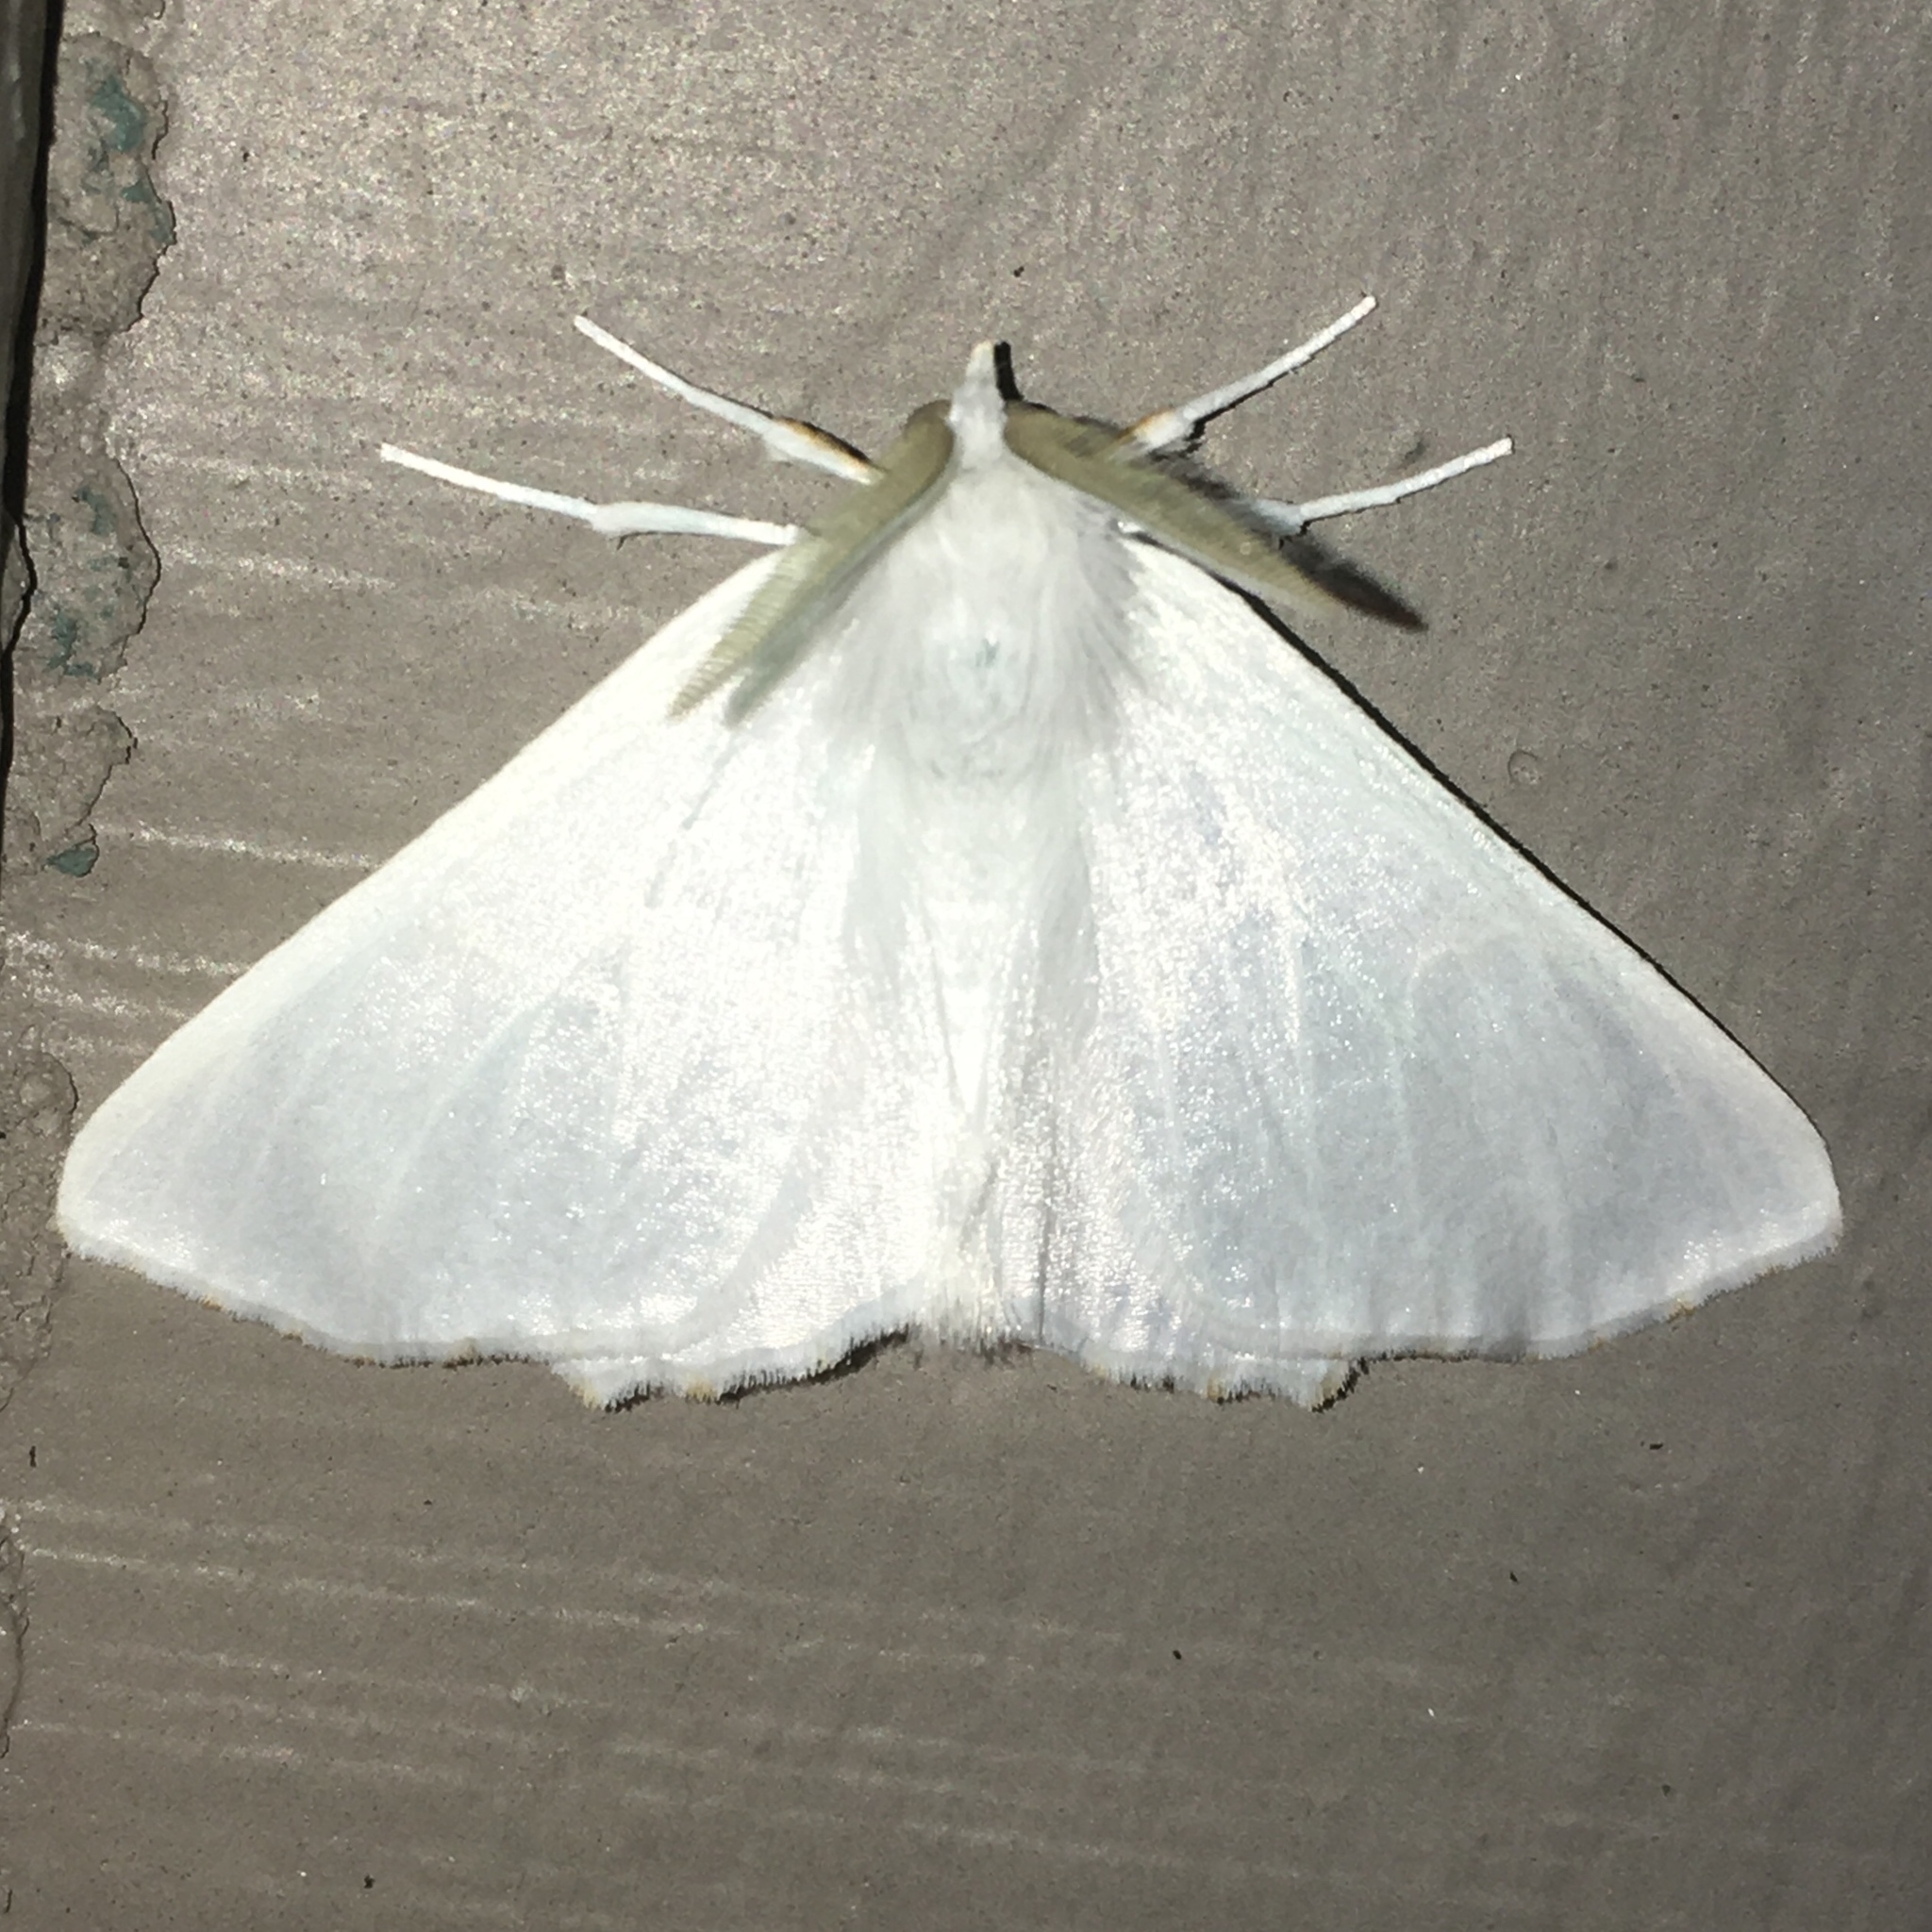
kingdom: Animalia
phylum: Arthropoda
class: Insecta
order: Lepidoptera
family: Geometridae
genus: Ennomos
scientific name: Ennomos subsignaria
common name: Elm spanworm
